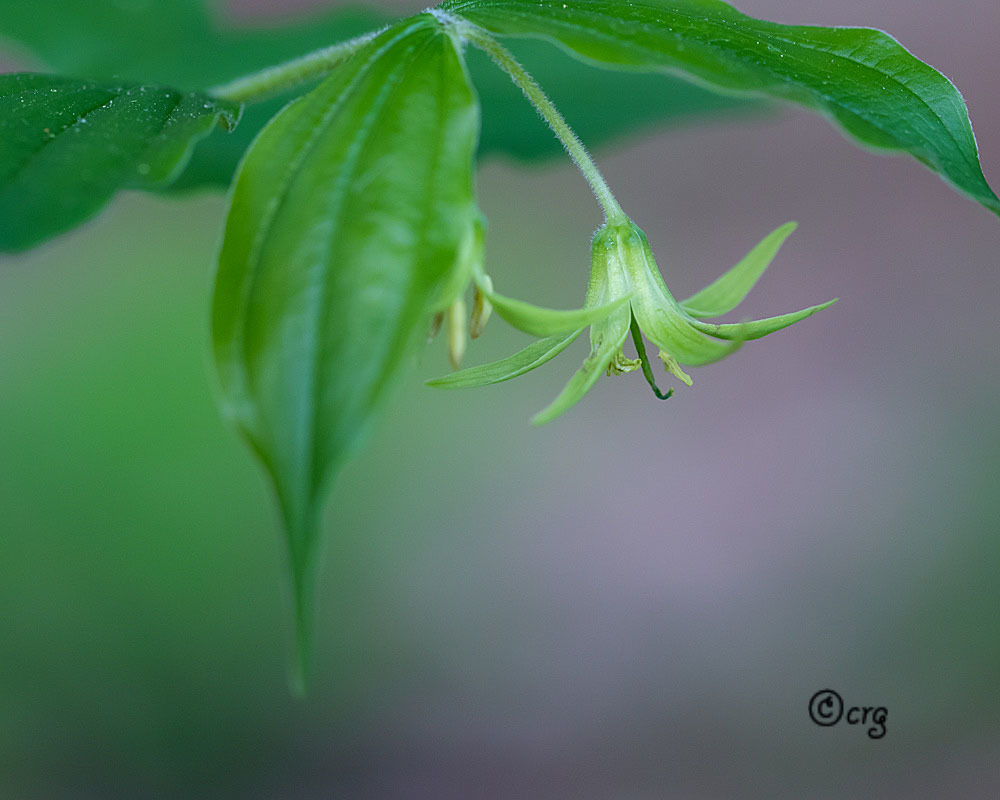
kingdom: Plantae
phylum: Tracheophyta
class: Liliopsida
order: Liliales
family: Liliaceae
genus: Prosartes
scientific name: Prosartes lanuginosa
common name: Hairy mandarin
